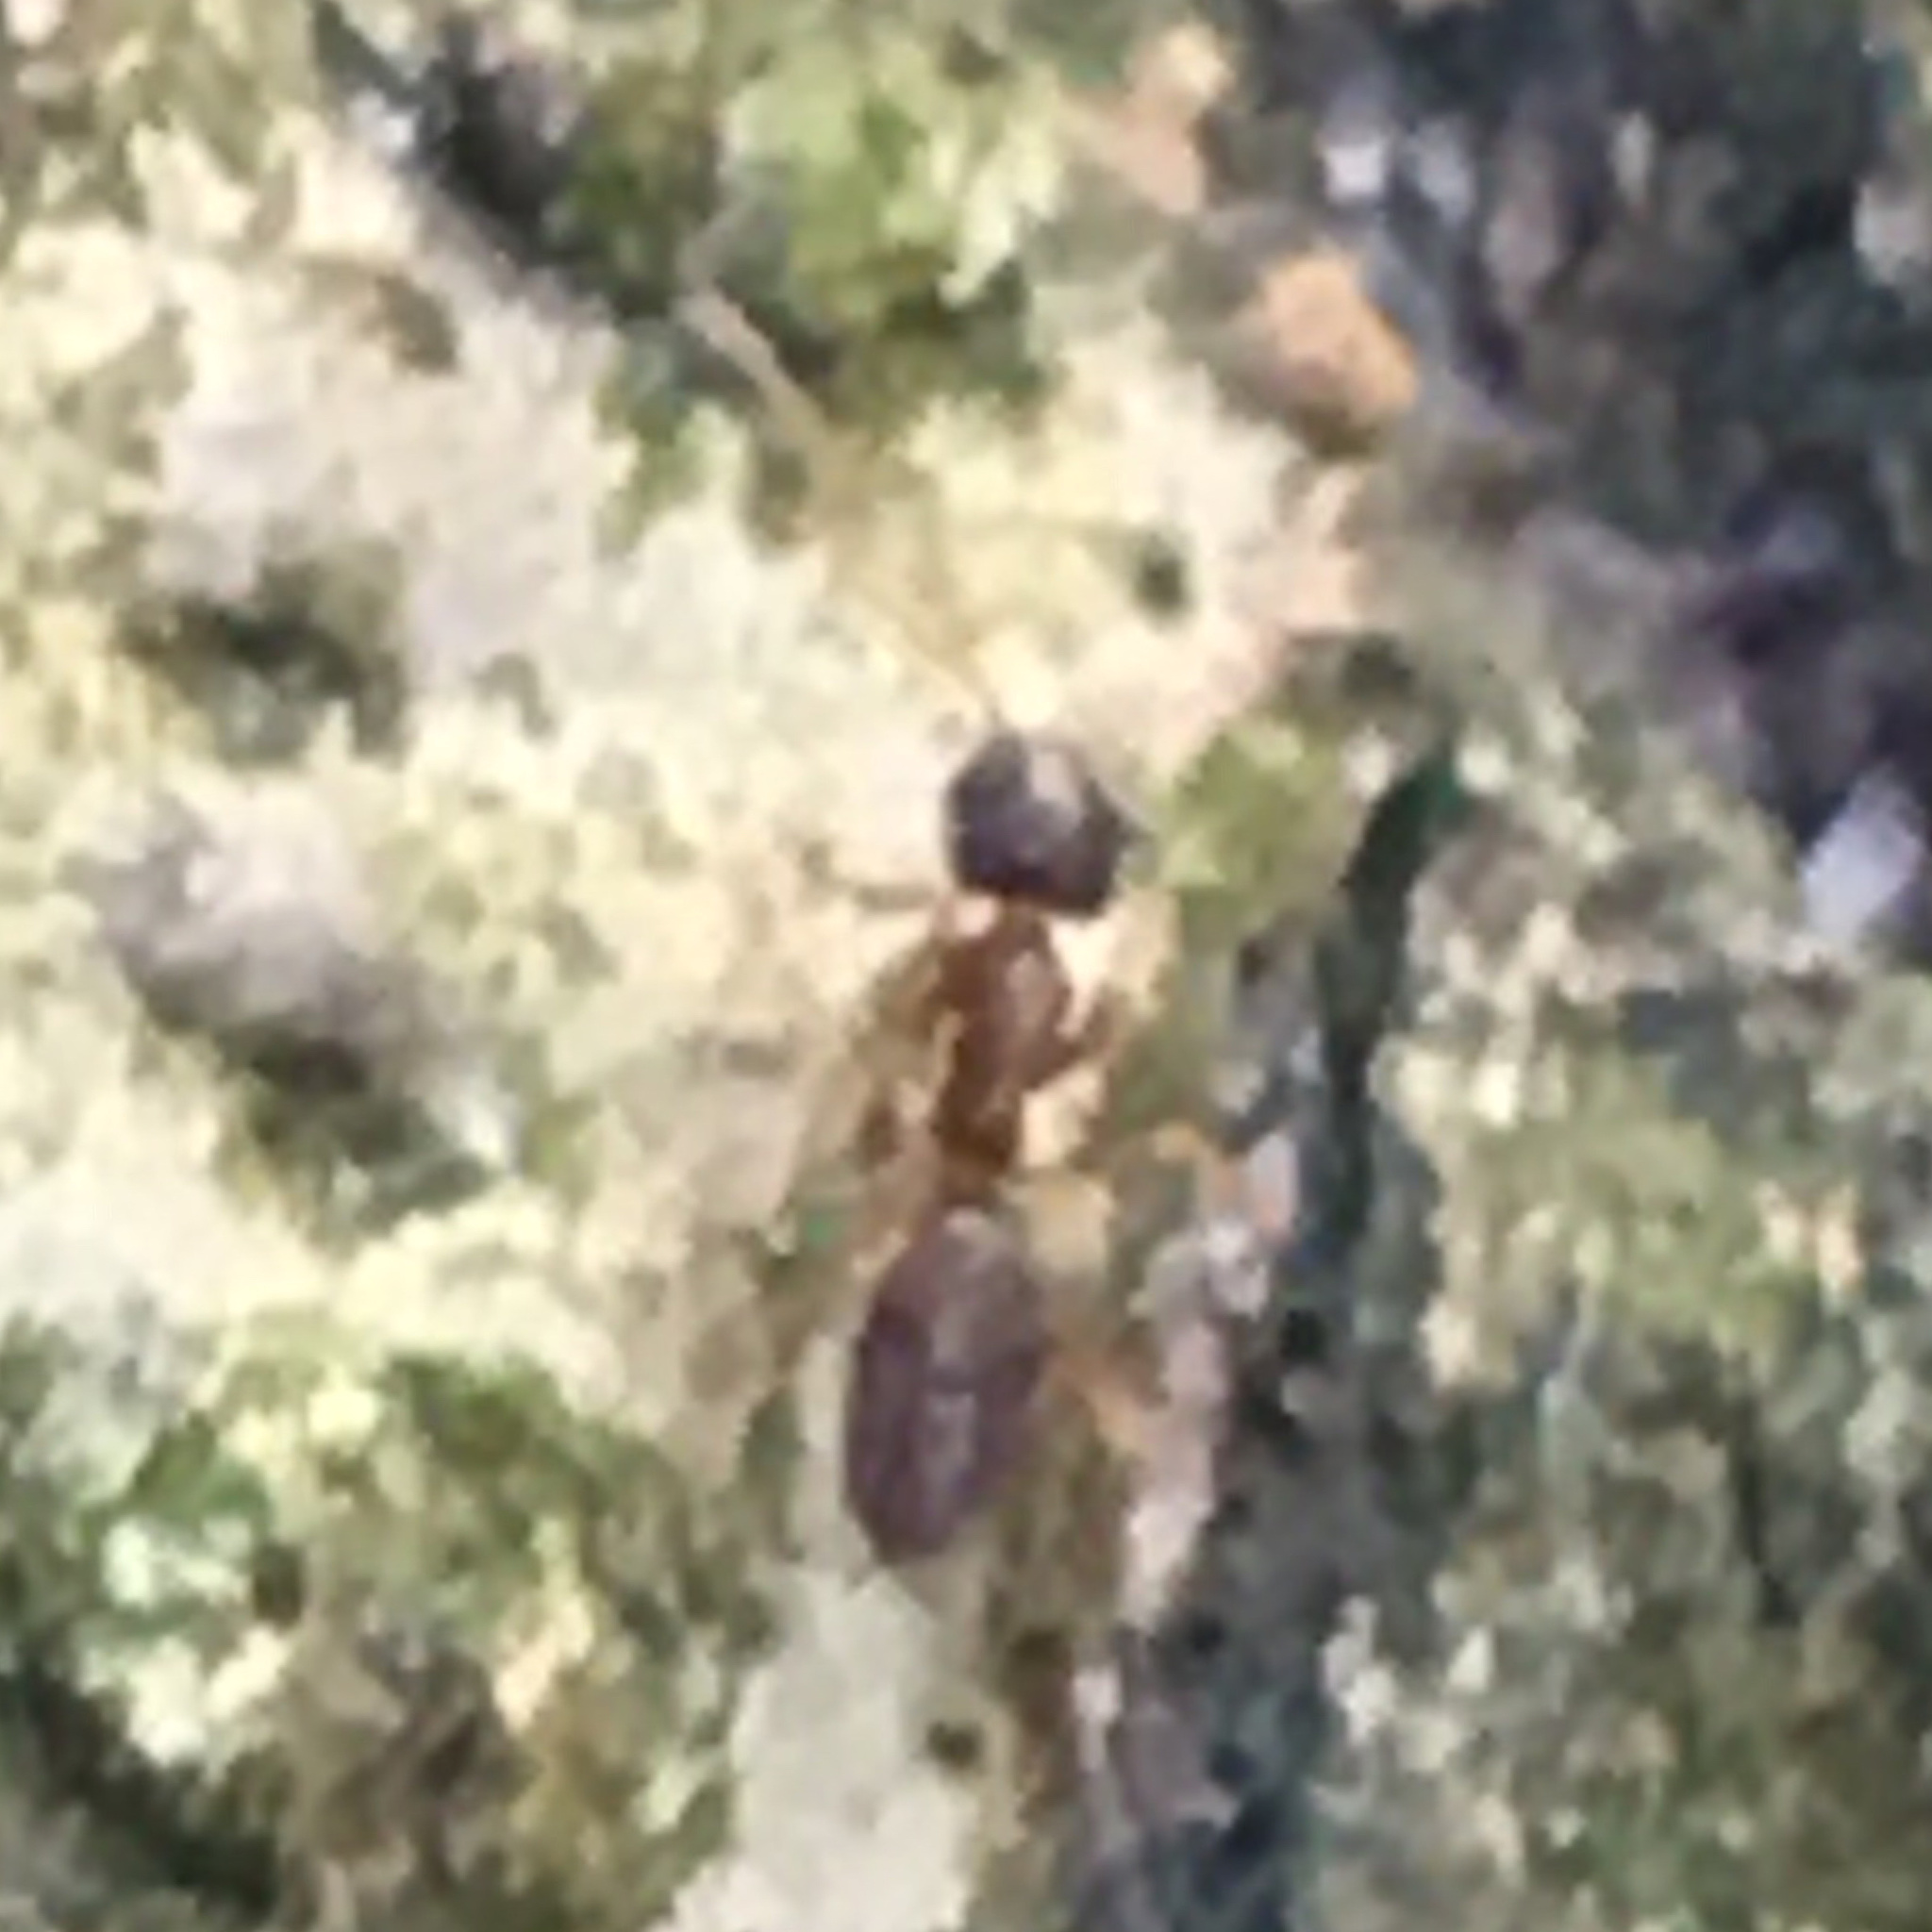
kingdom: Animalia
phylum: Arthropoda
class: Insecta
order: Hymenoptera
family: Formicidae
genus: Tapinoma
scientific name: Tapinoma sessile
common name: Odorous house ant
